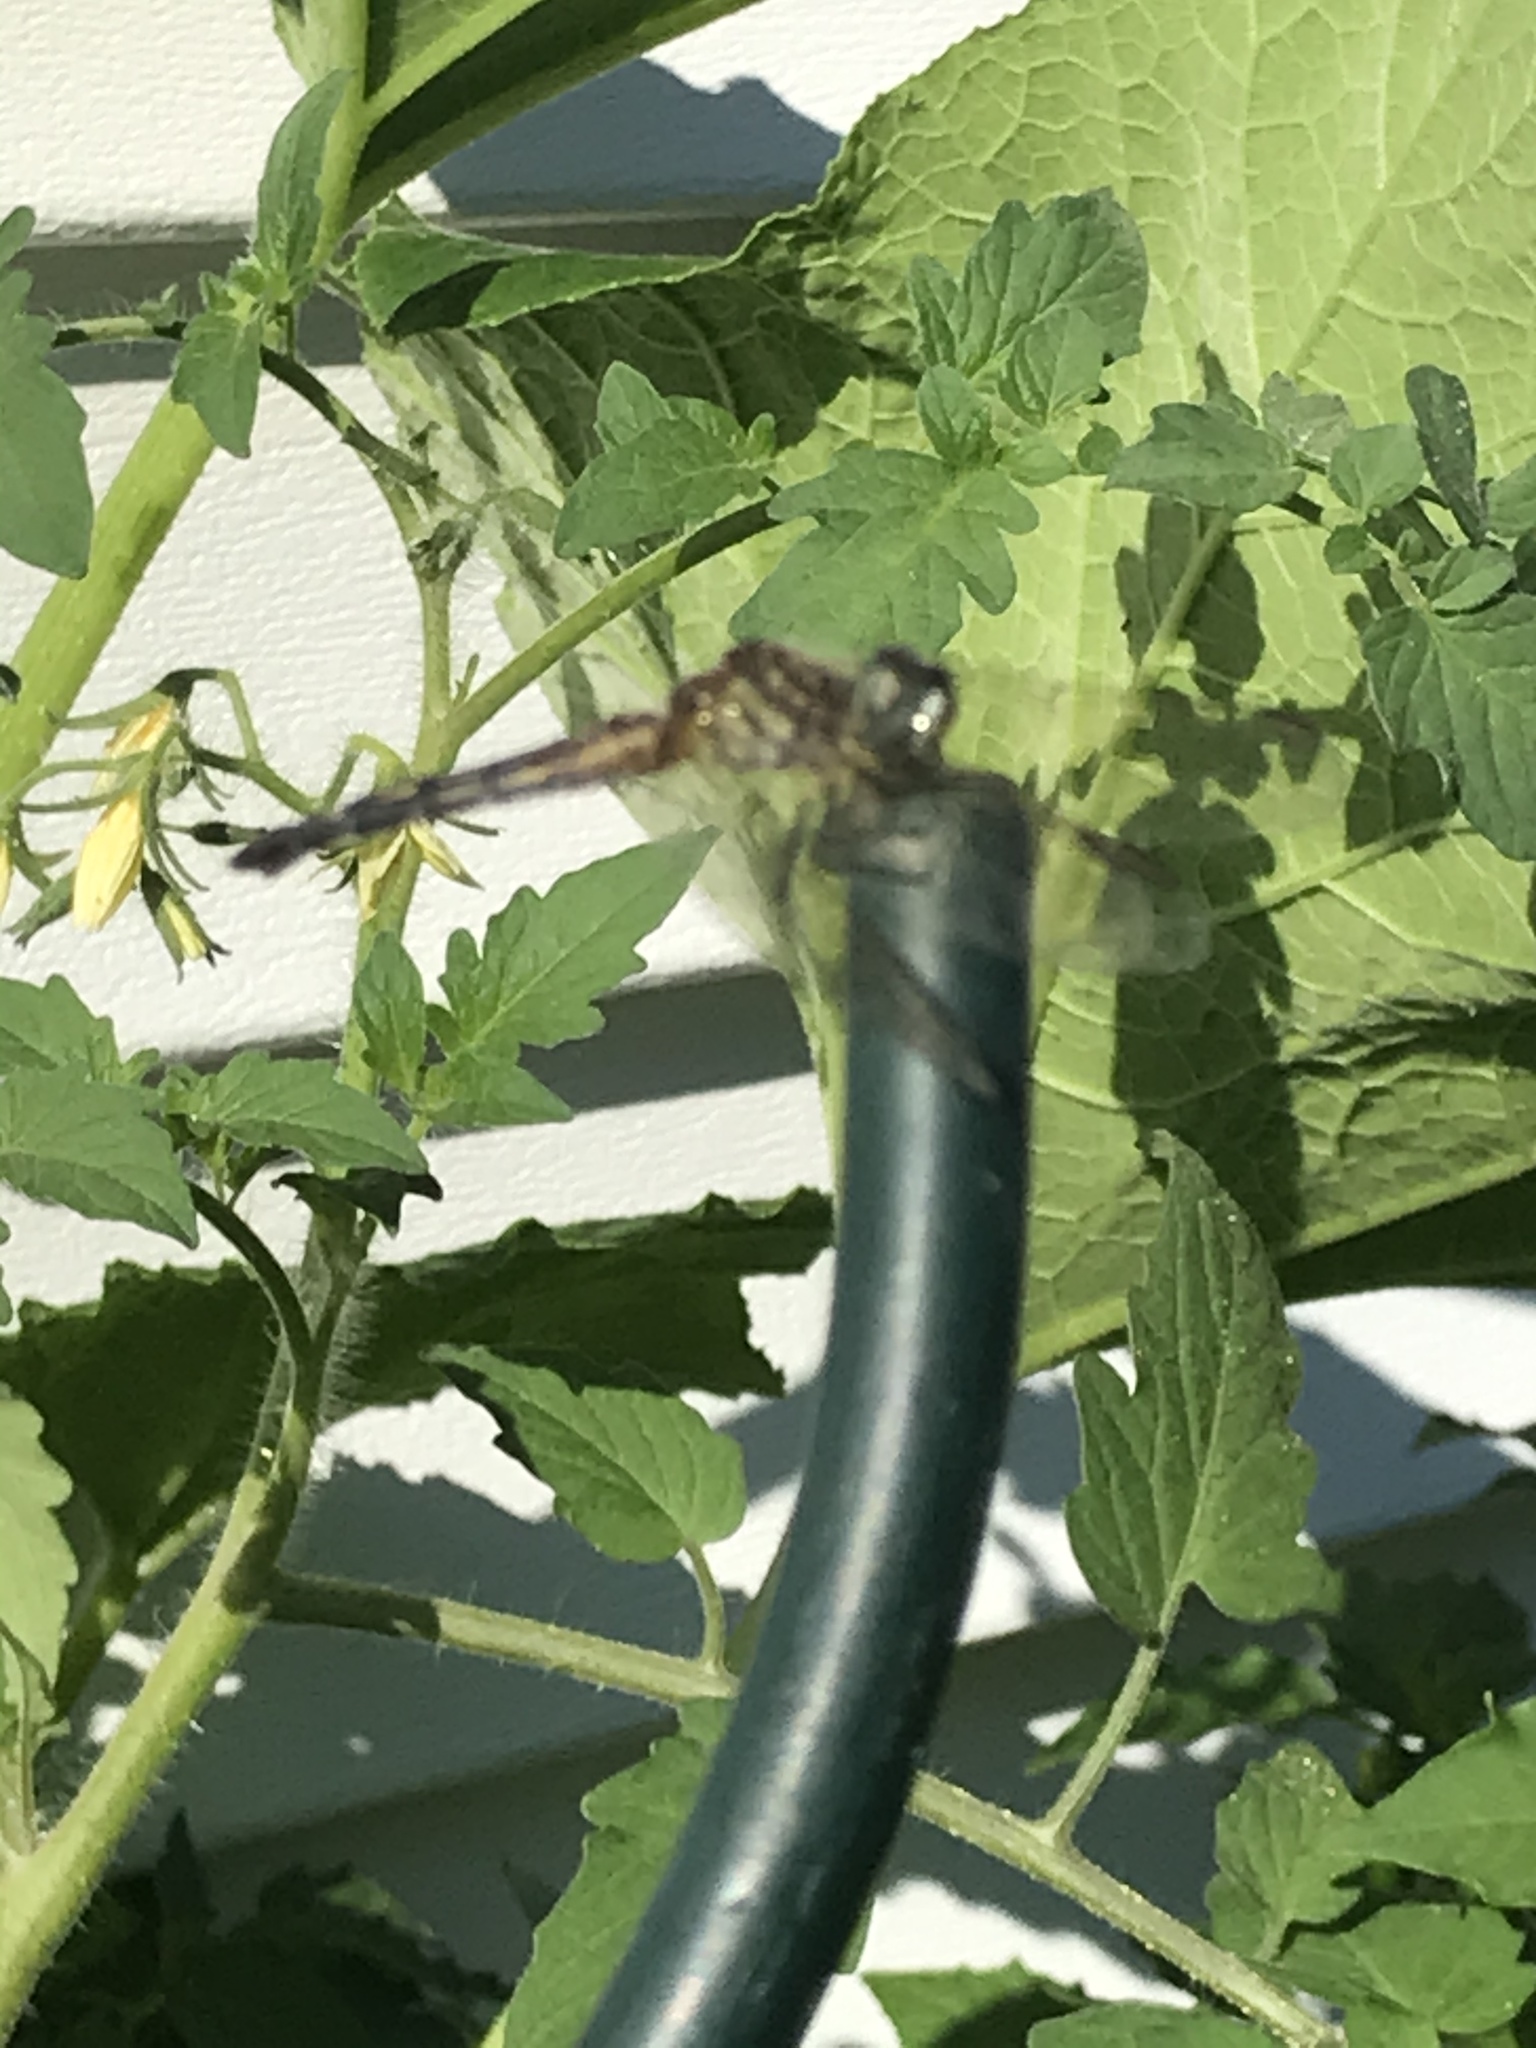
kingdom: Animalia
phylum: Arthropoda
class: Insecta
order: Odonata
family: Libellulidae
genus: Pachydiplax
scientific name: Pachydiplax longipennis
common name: Blue dasher
